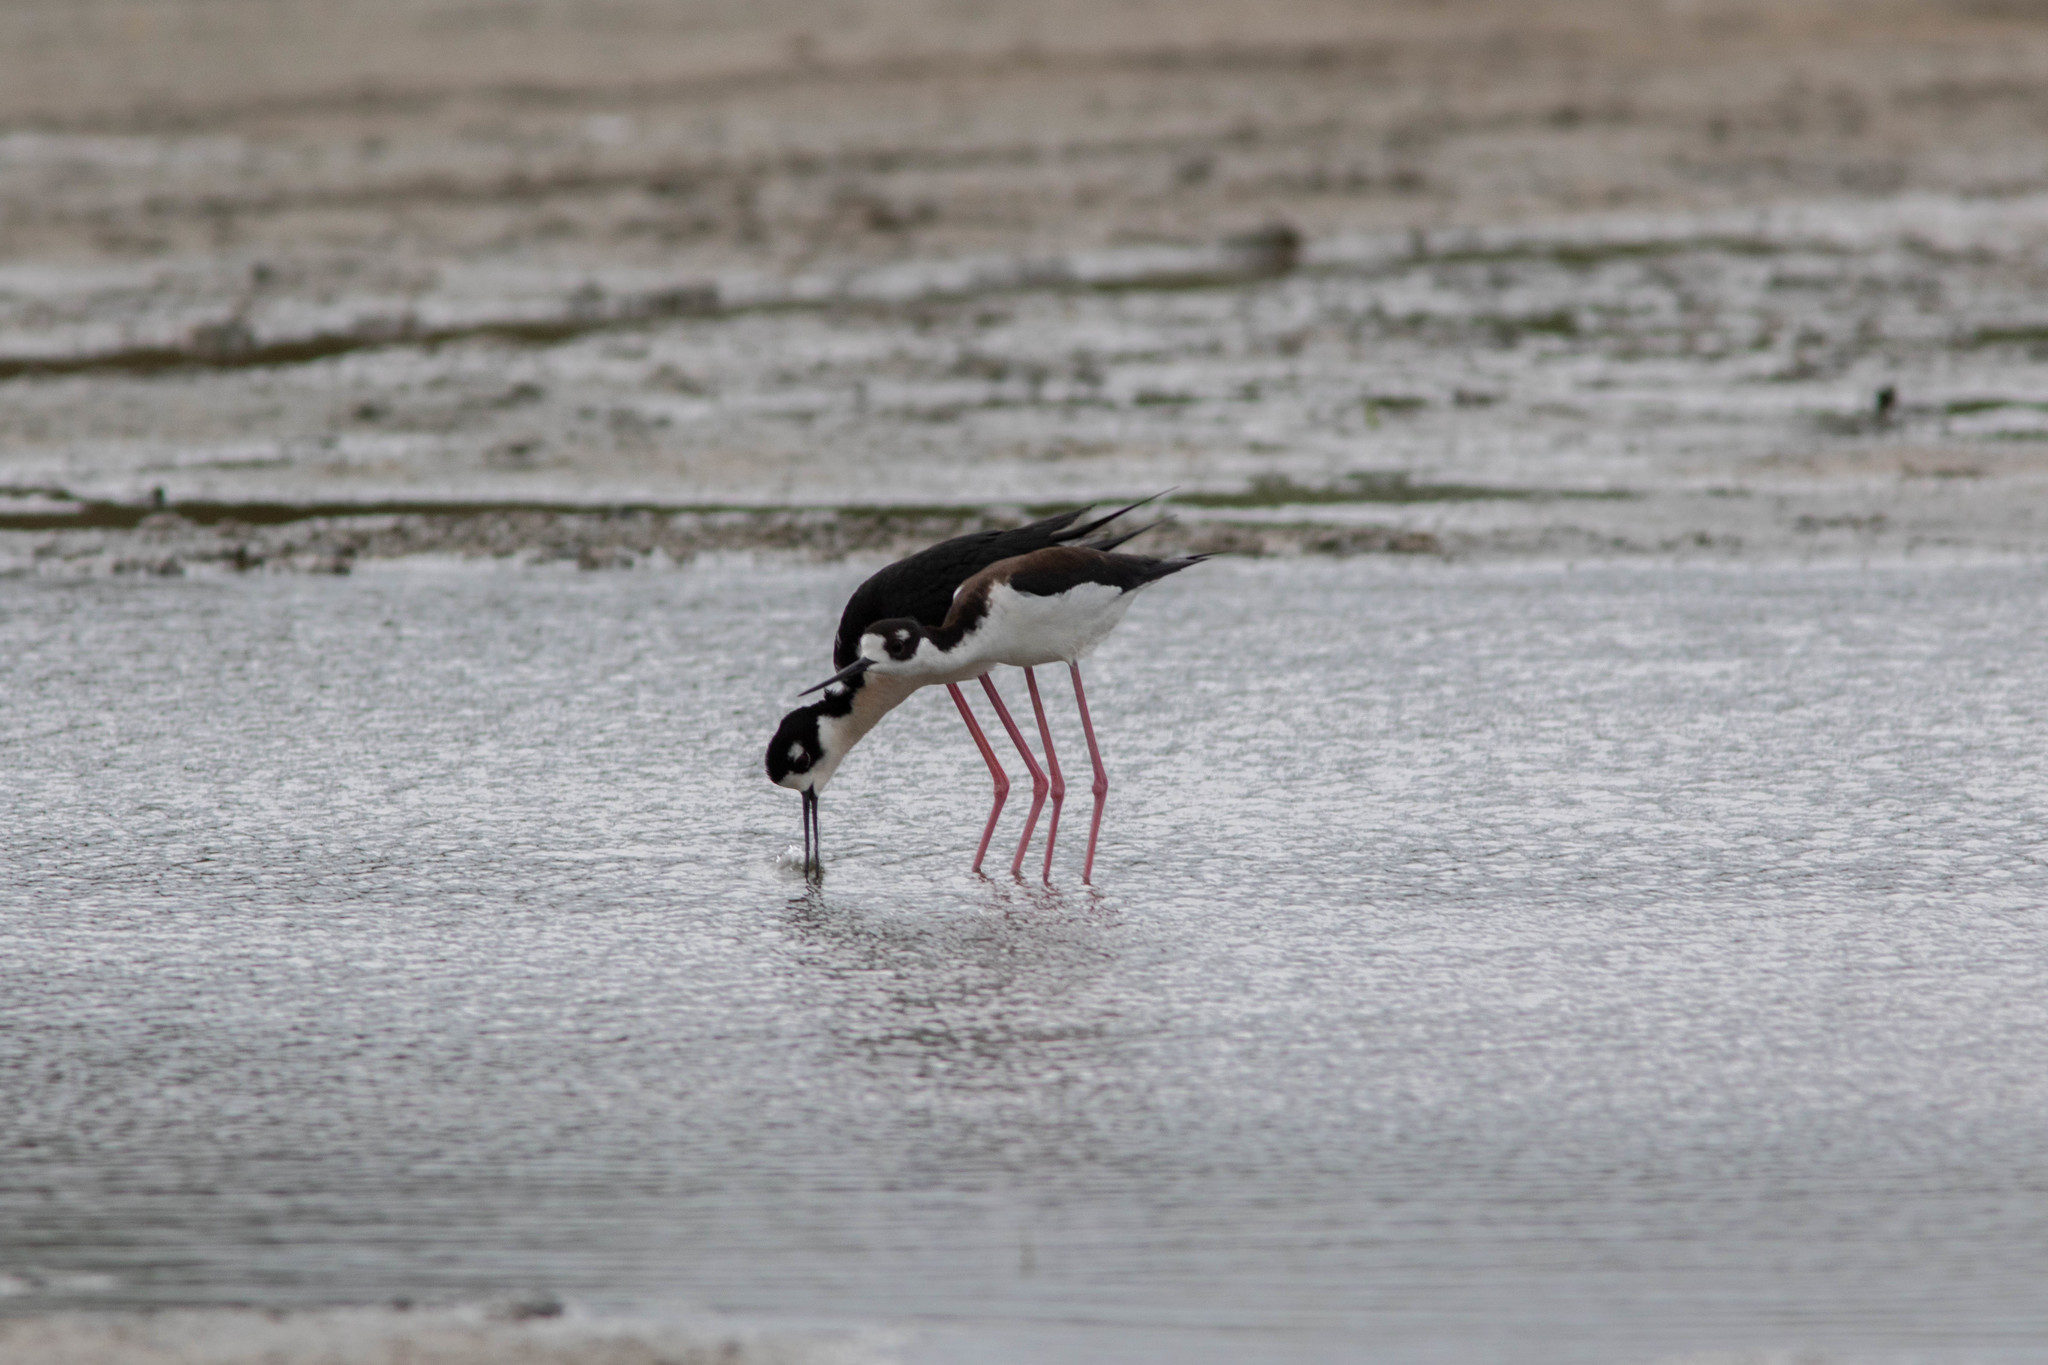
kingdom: Animalia
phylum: Chordata
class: Aves
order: Charadriiformes
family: Recurvirostridae
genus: Himantopus
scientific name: Himantopus mexicanus
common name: Black-necked stilt
